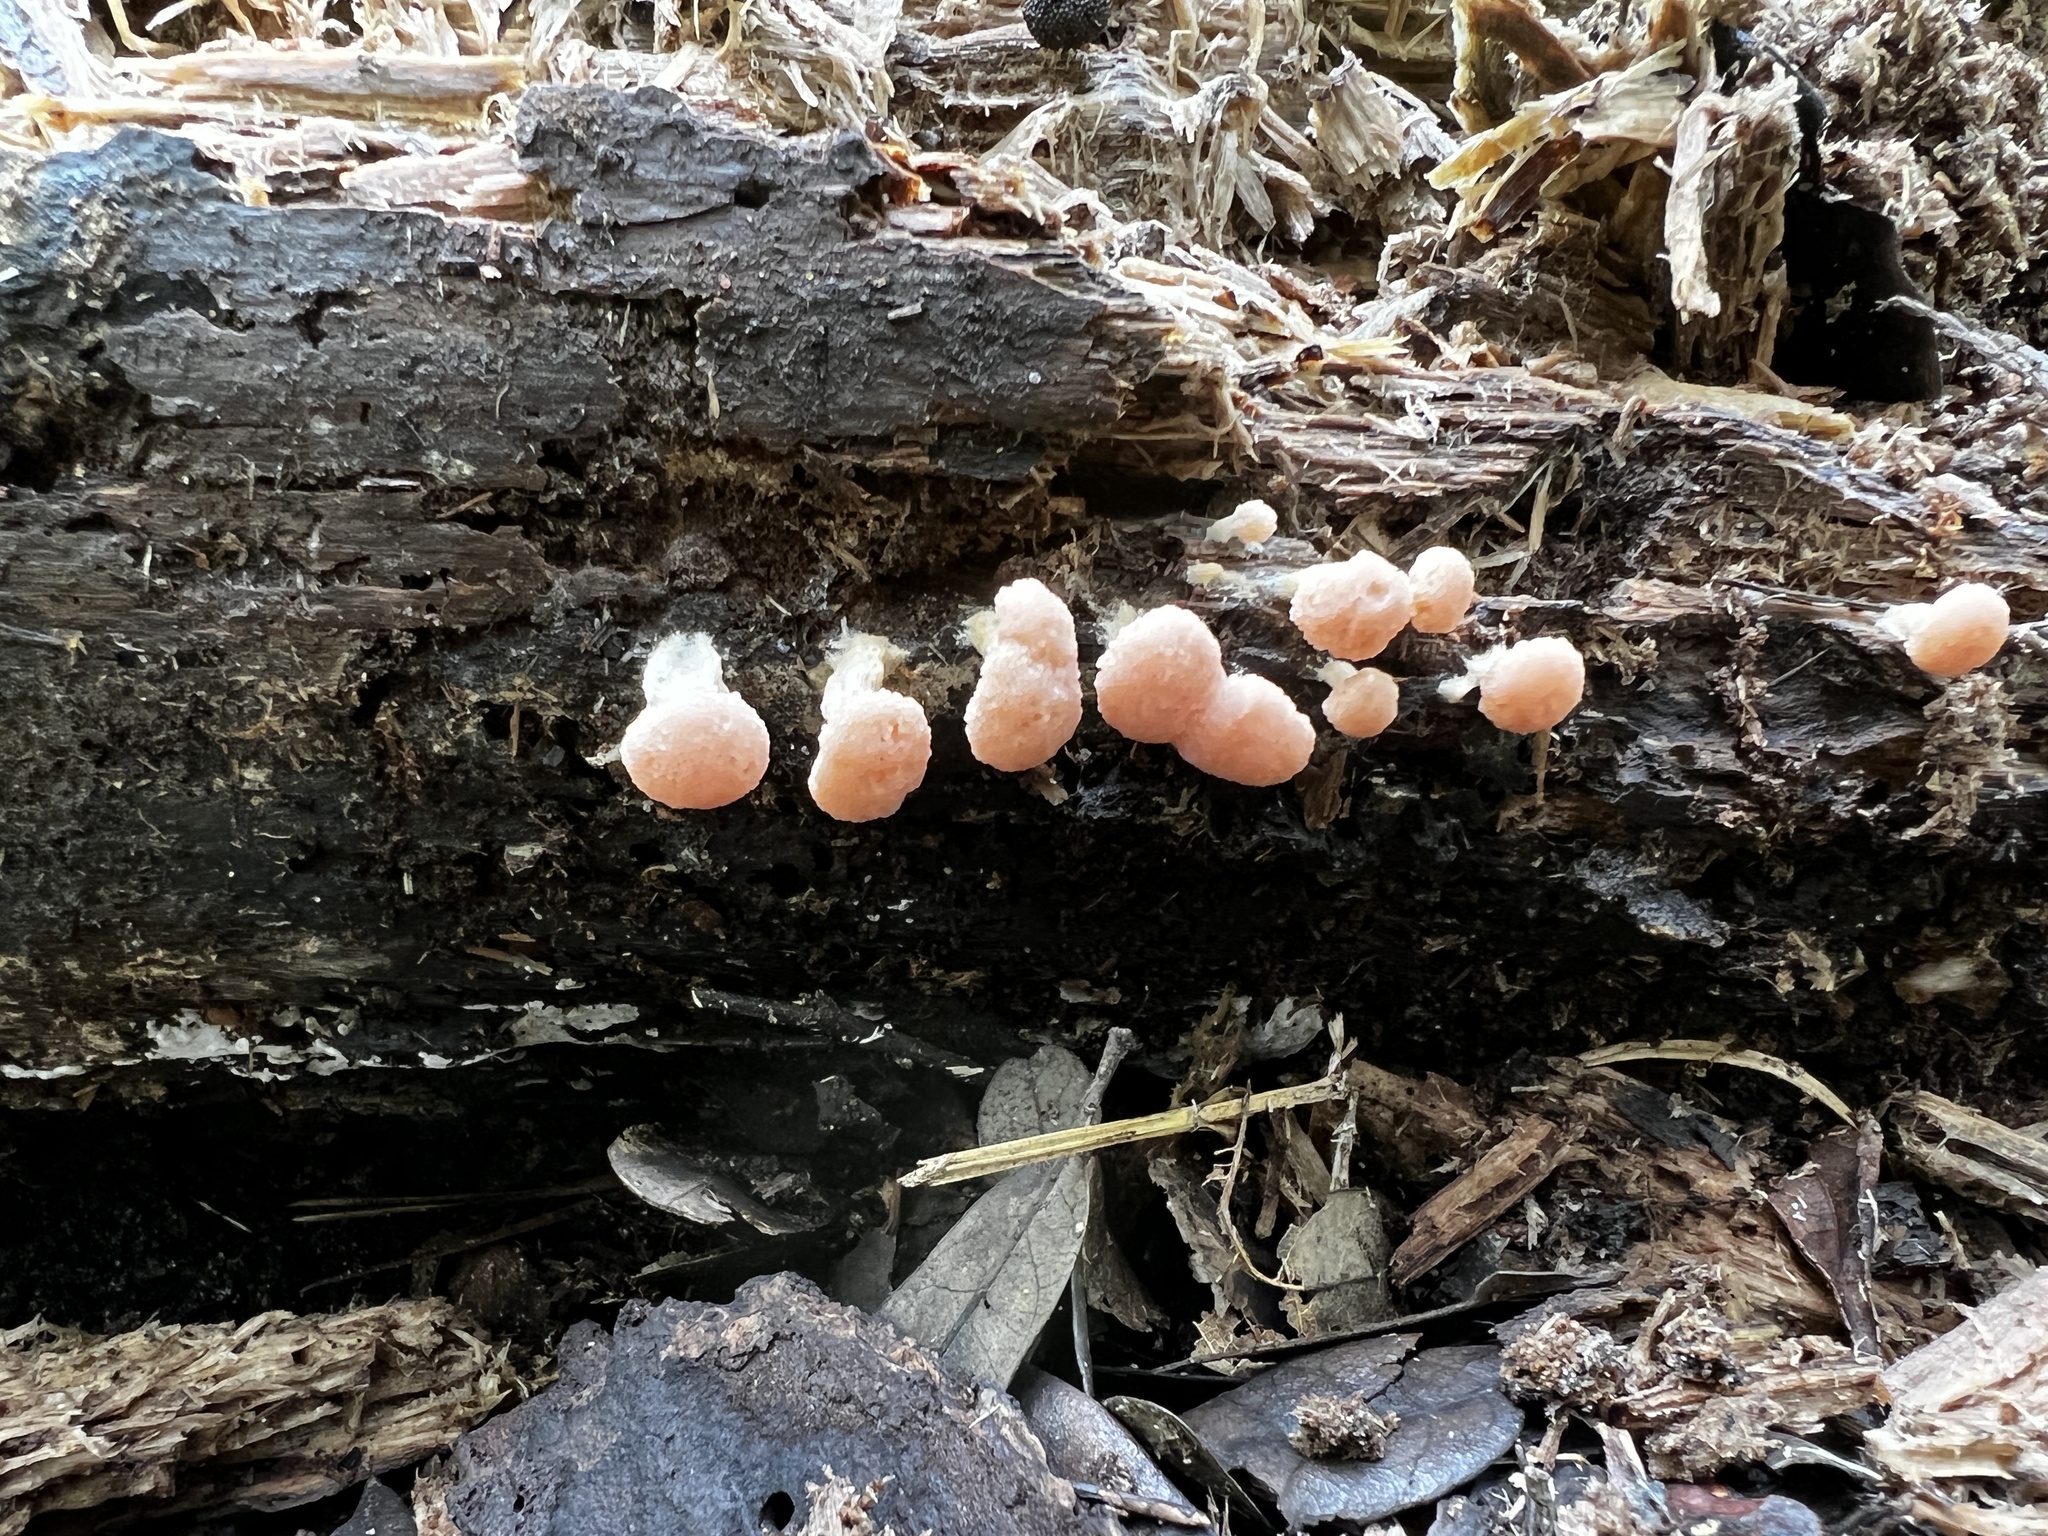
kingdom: Protozoa
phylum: Mycetozoa
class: Myxomycetes
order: Cribrariales
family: Tubiferaceae
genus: Tubifera
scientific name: Tubifera microsperma
